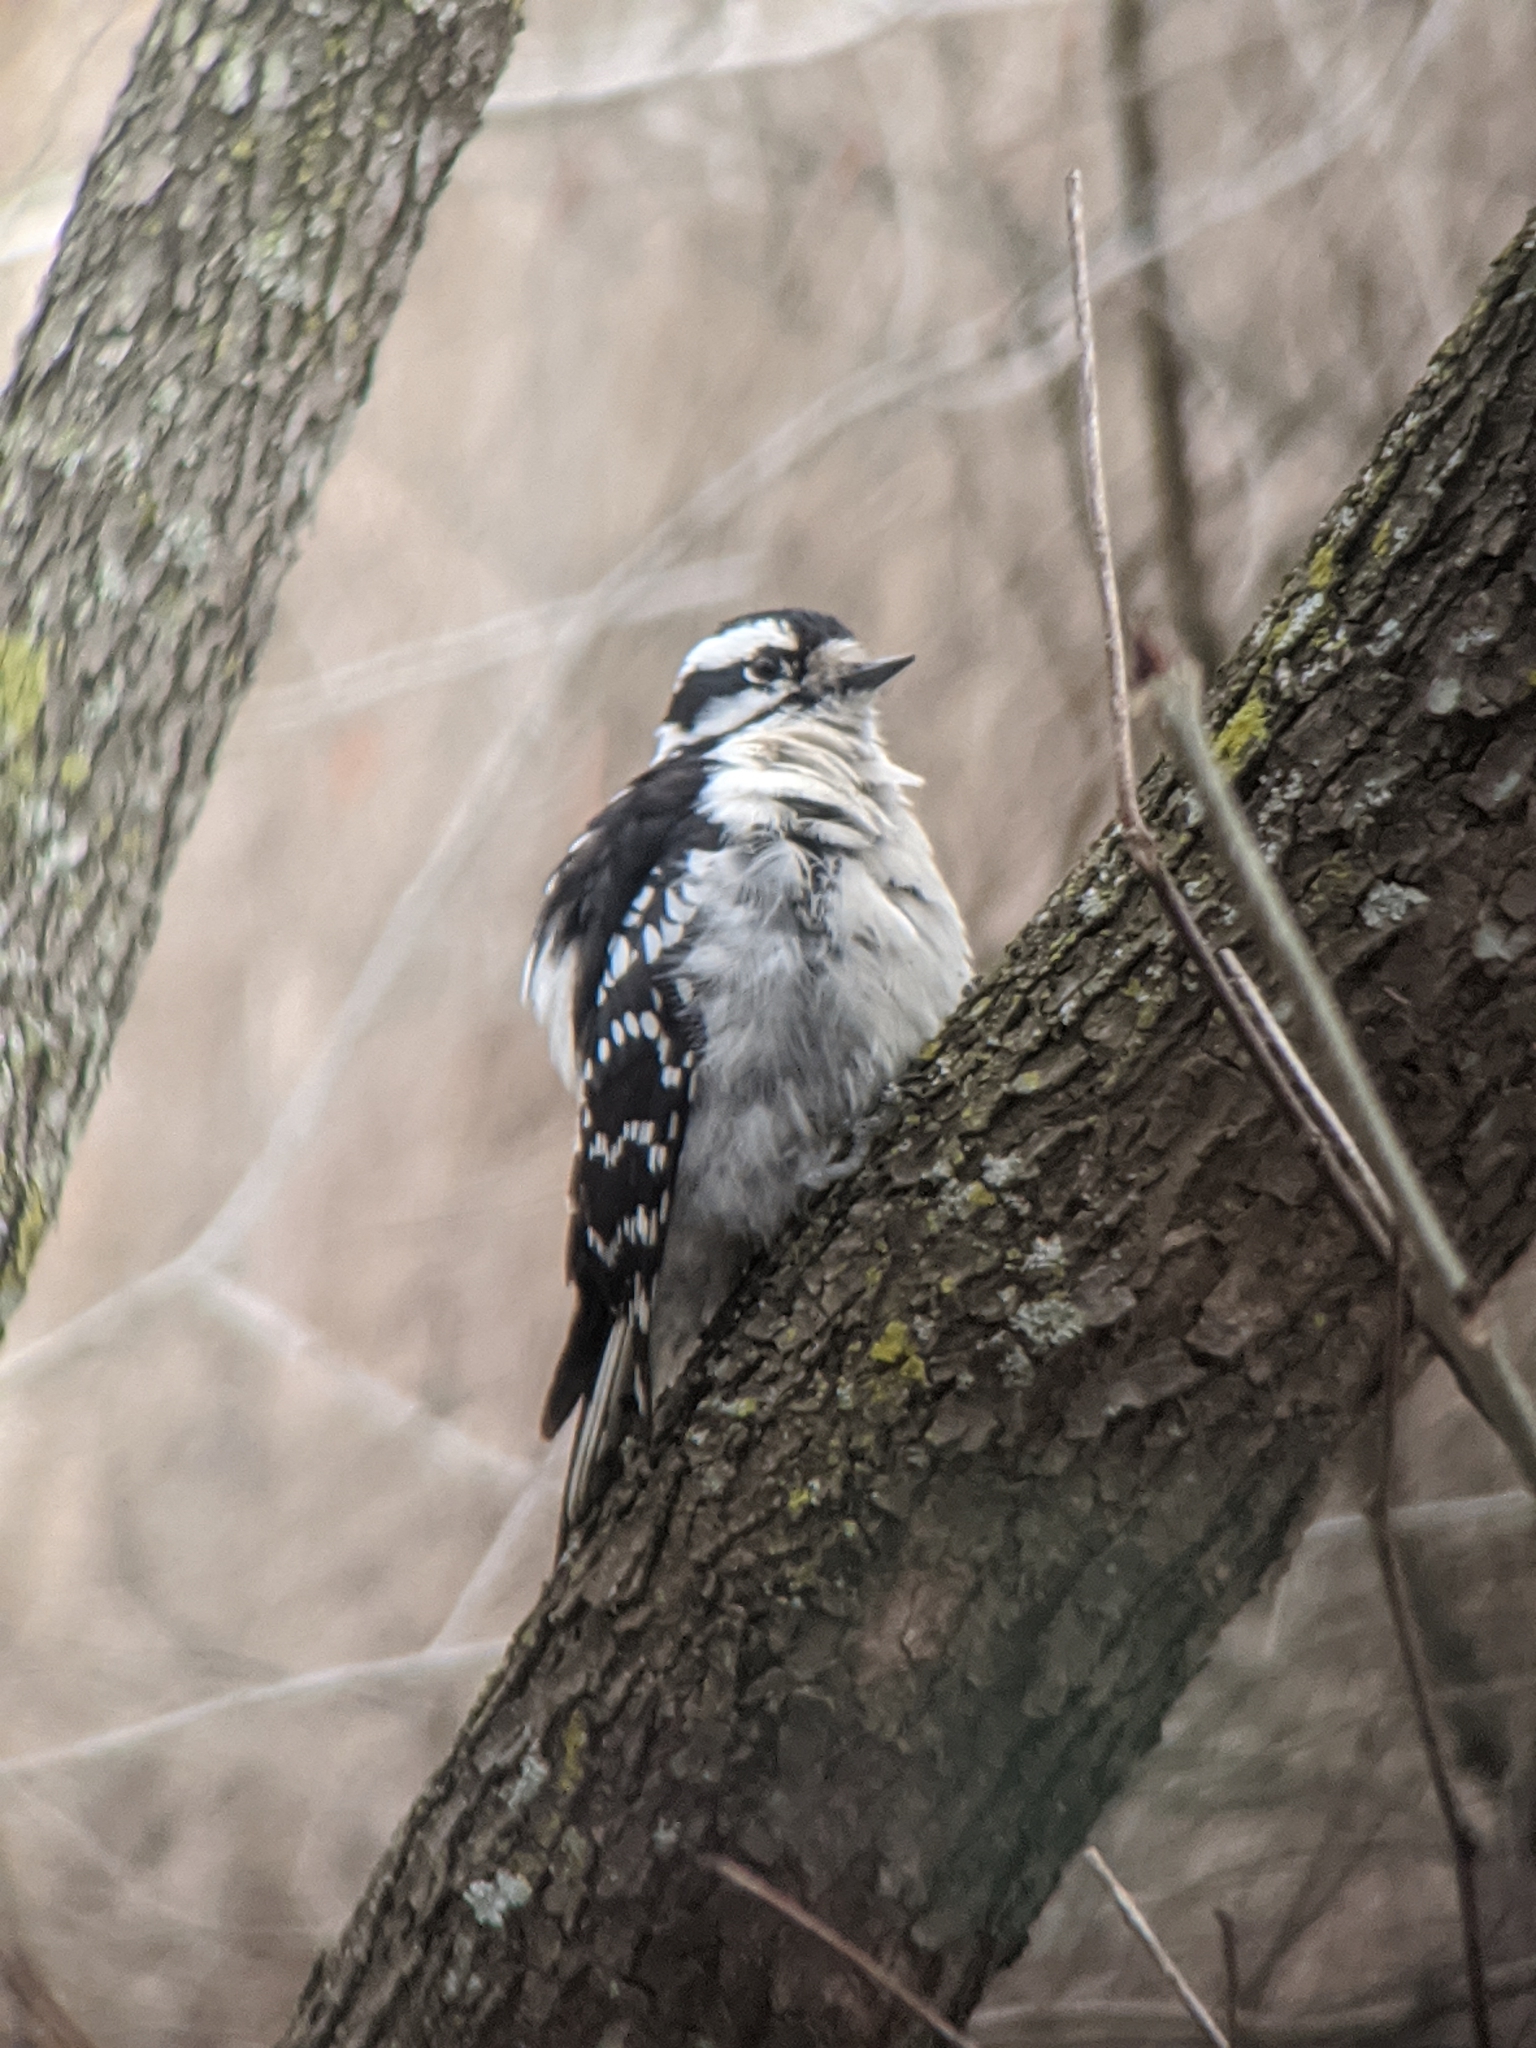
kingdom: Animalia
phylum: Chordata
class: Aves
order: Piciformes
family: Picidae
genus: Dryobates
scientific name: Dryobates pubescens
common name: Downy woodpecker
